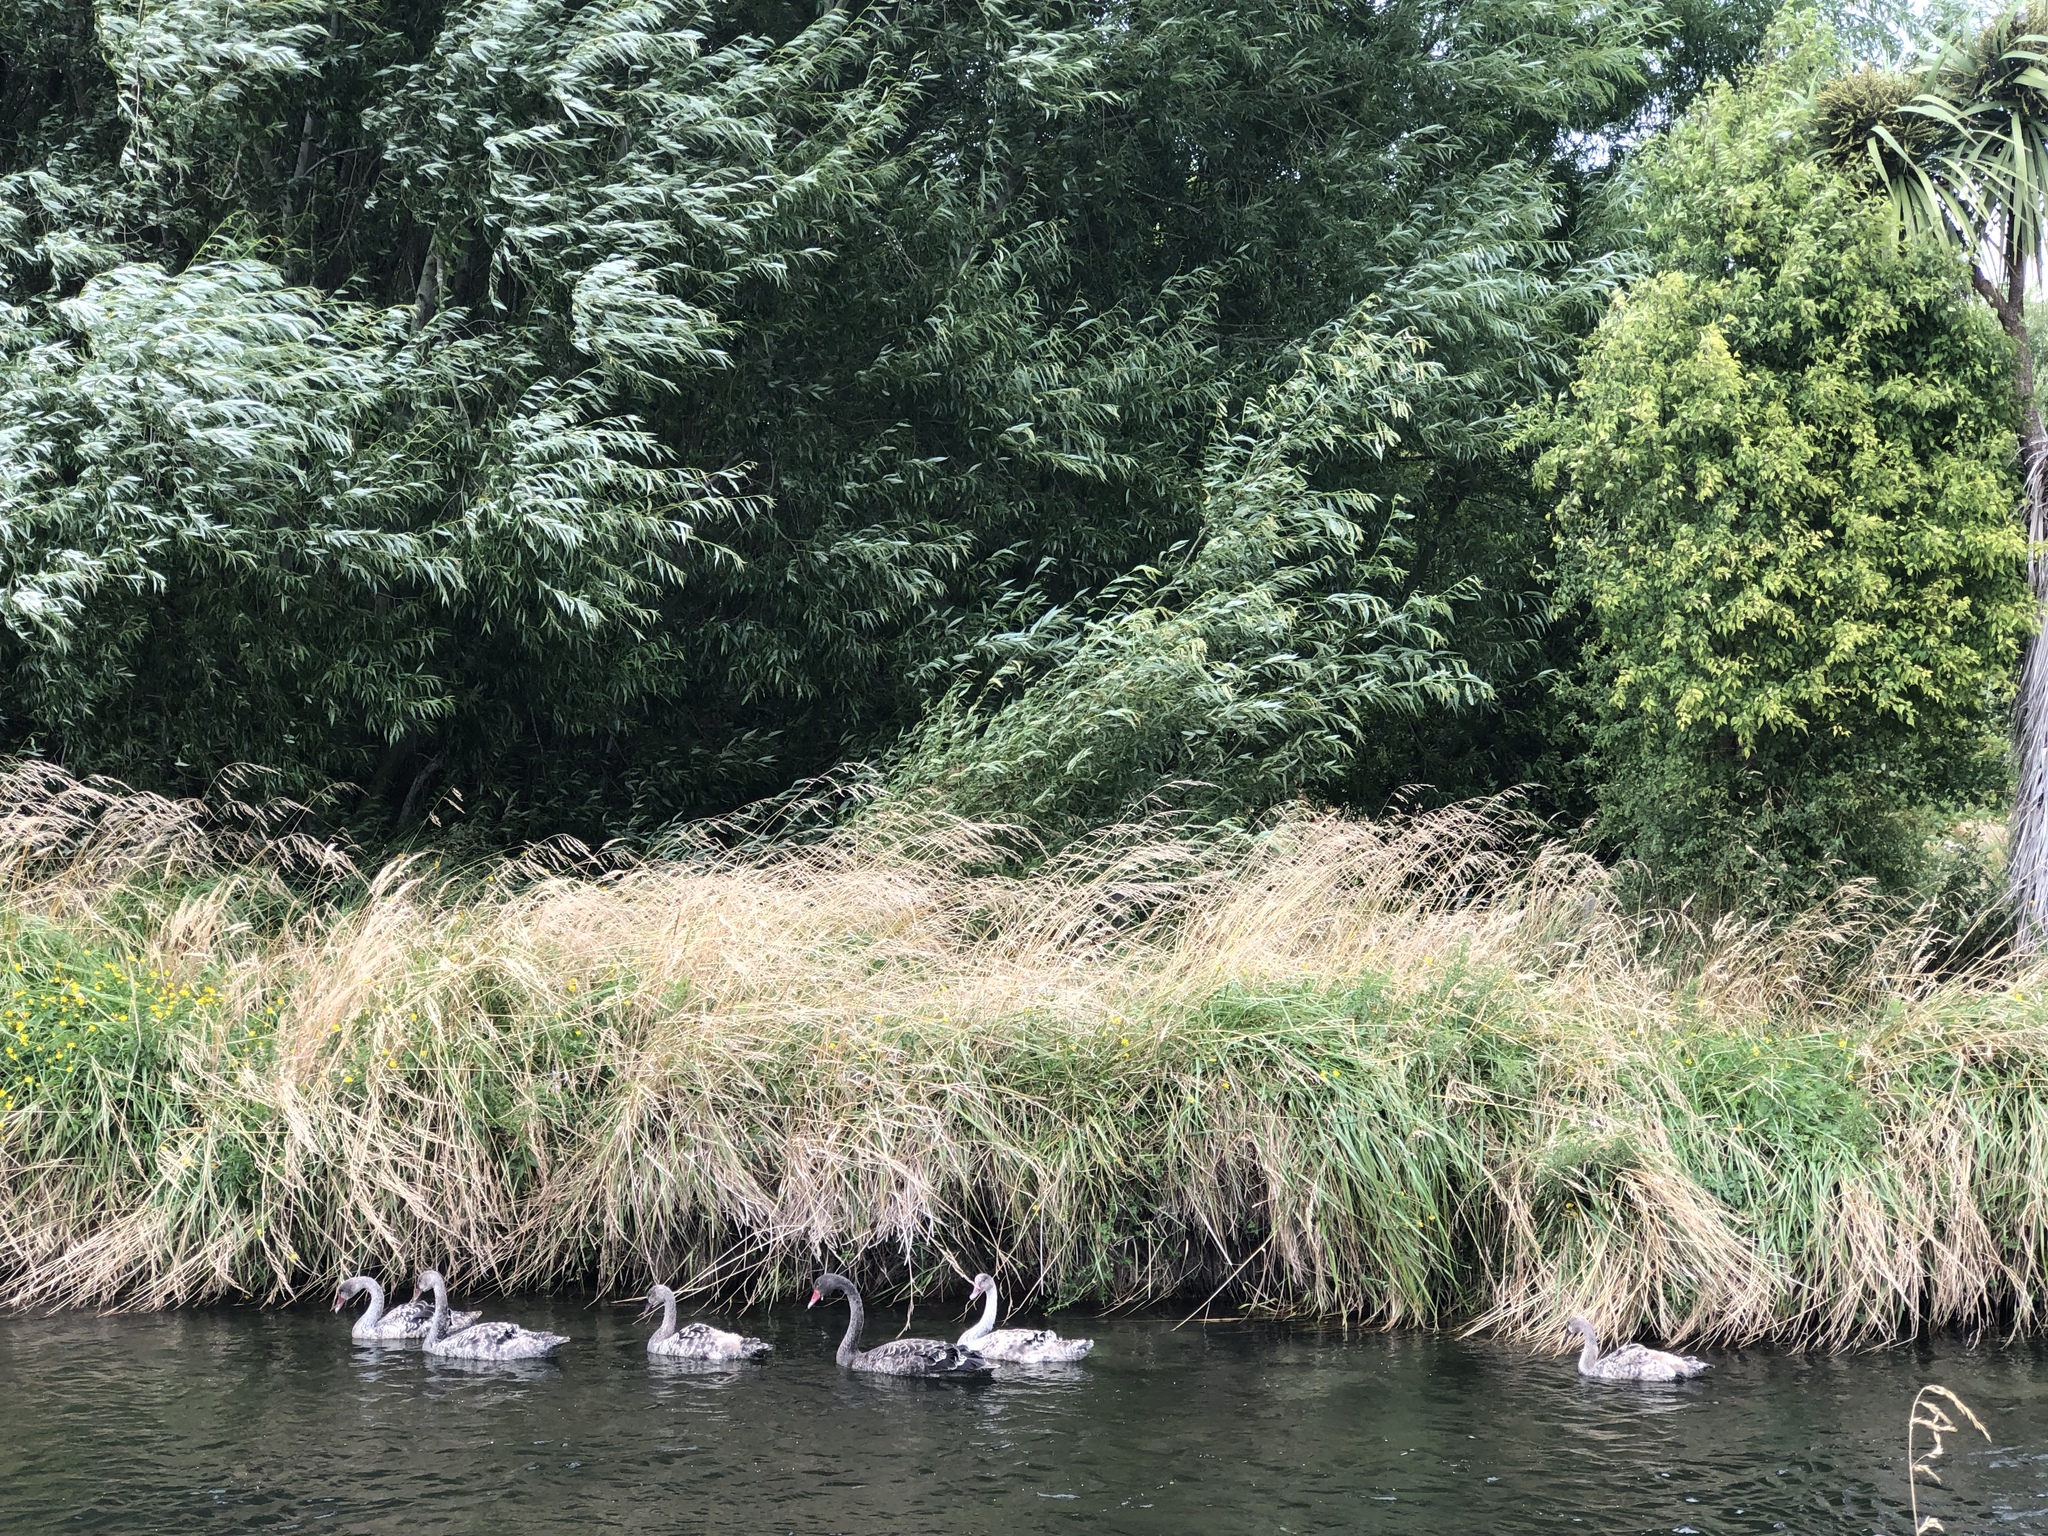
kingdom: Animalia
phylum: Chordata
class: Aves
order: Anseriformes
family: Anatidae
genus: Cygnus
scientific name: Cygnus atratus
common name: Black swan
